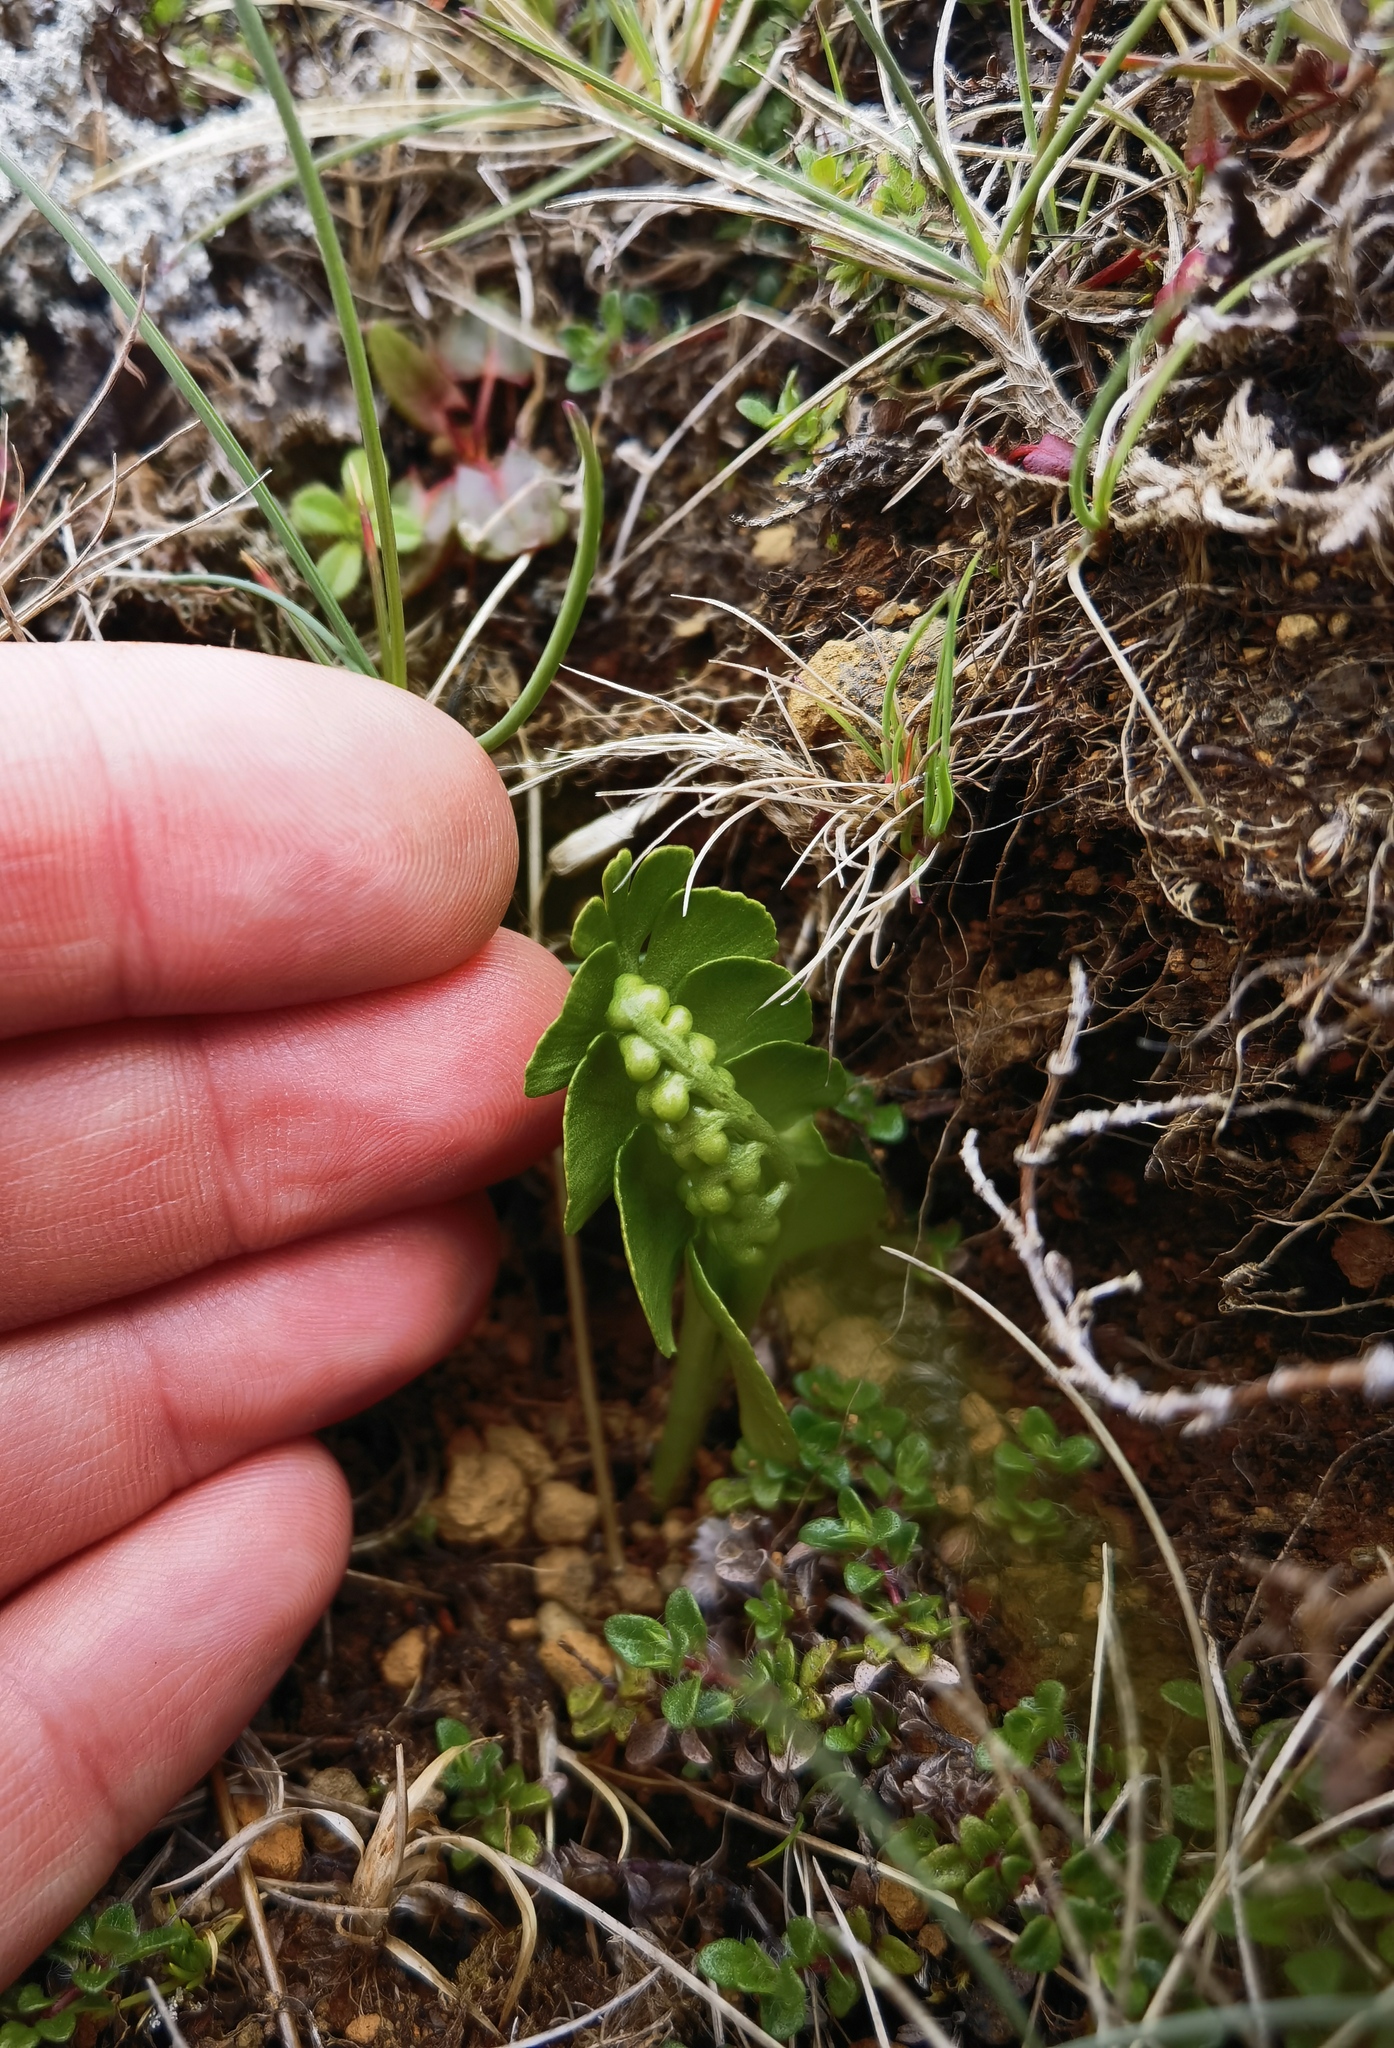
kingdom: Plantae
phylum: Tracheophyta
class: Polypodiopsida
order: Ophioglossales
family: Ophioglossaceae
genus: Botrychium
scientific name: Botrychium lunaria
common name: Moonwort
